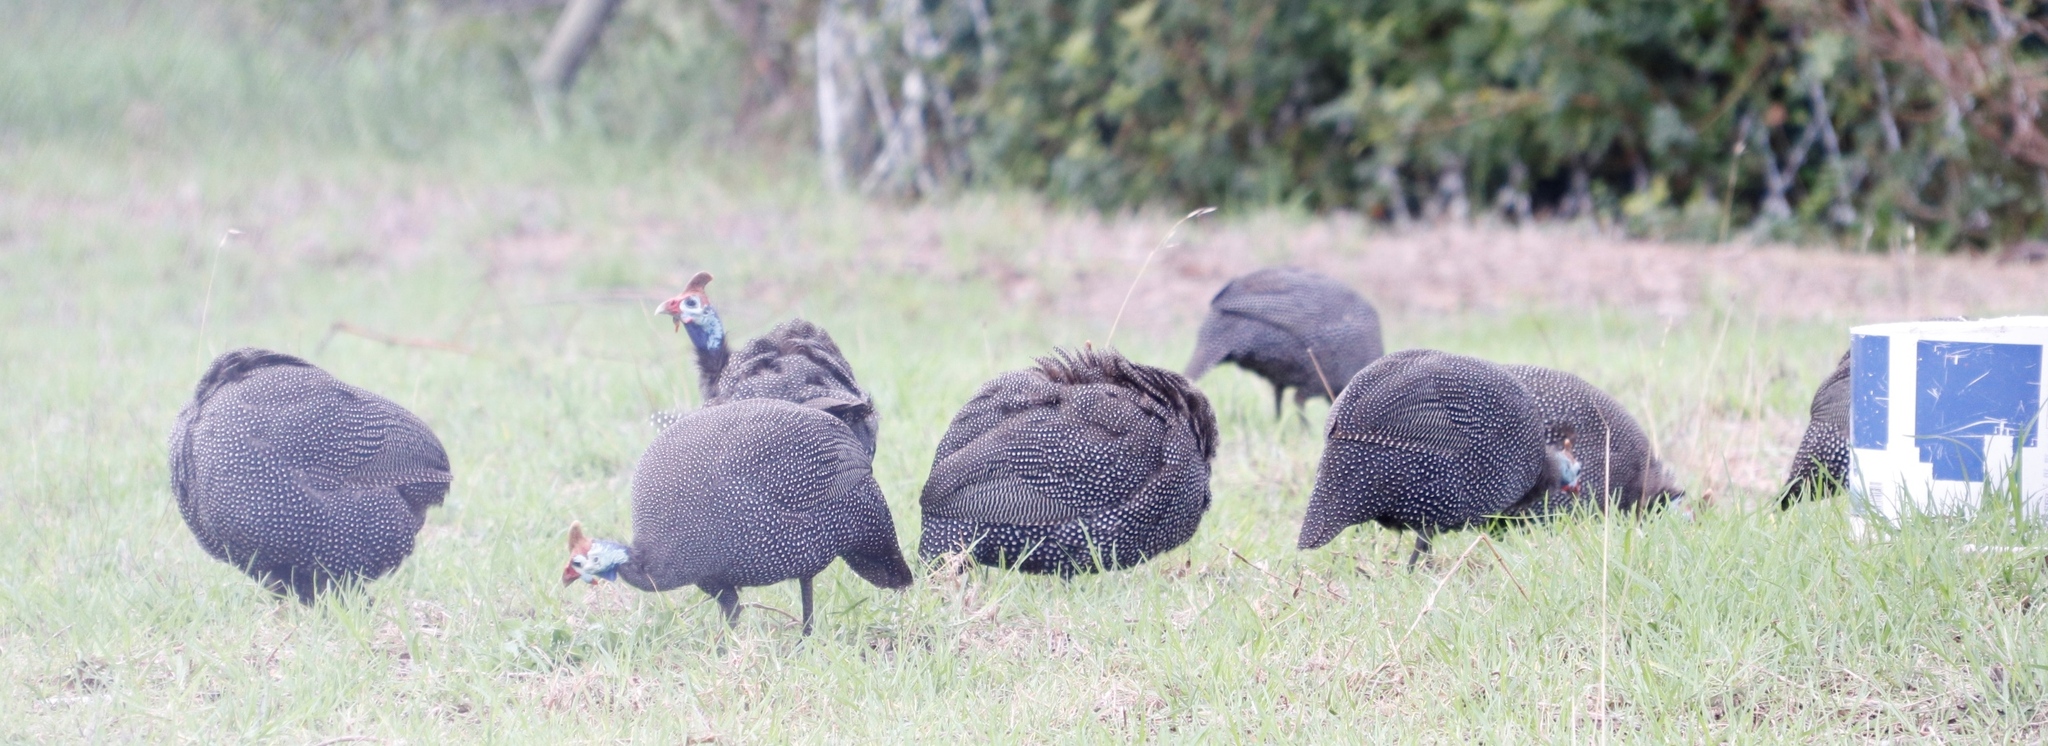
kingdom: Animalia
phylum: Chordata
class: Aves
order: Galliformes
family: Numididae
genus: Numida
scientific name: Numida meleagris
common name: Helmeted guineafowl
